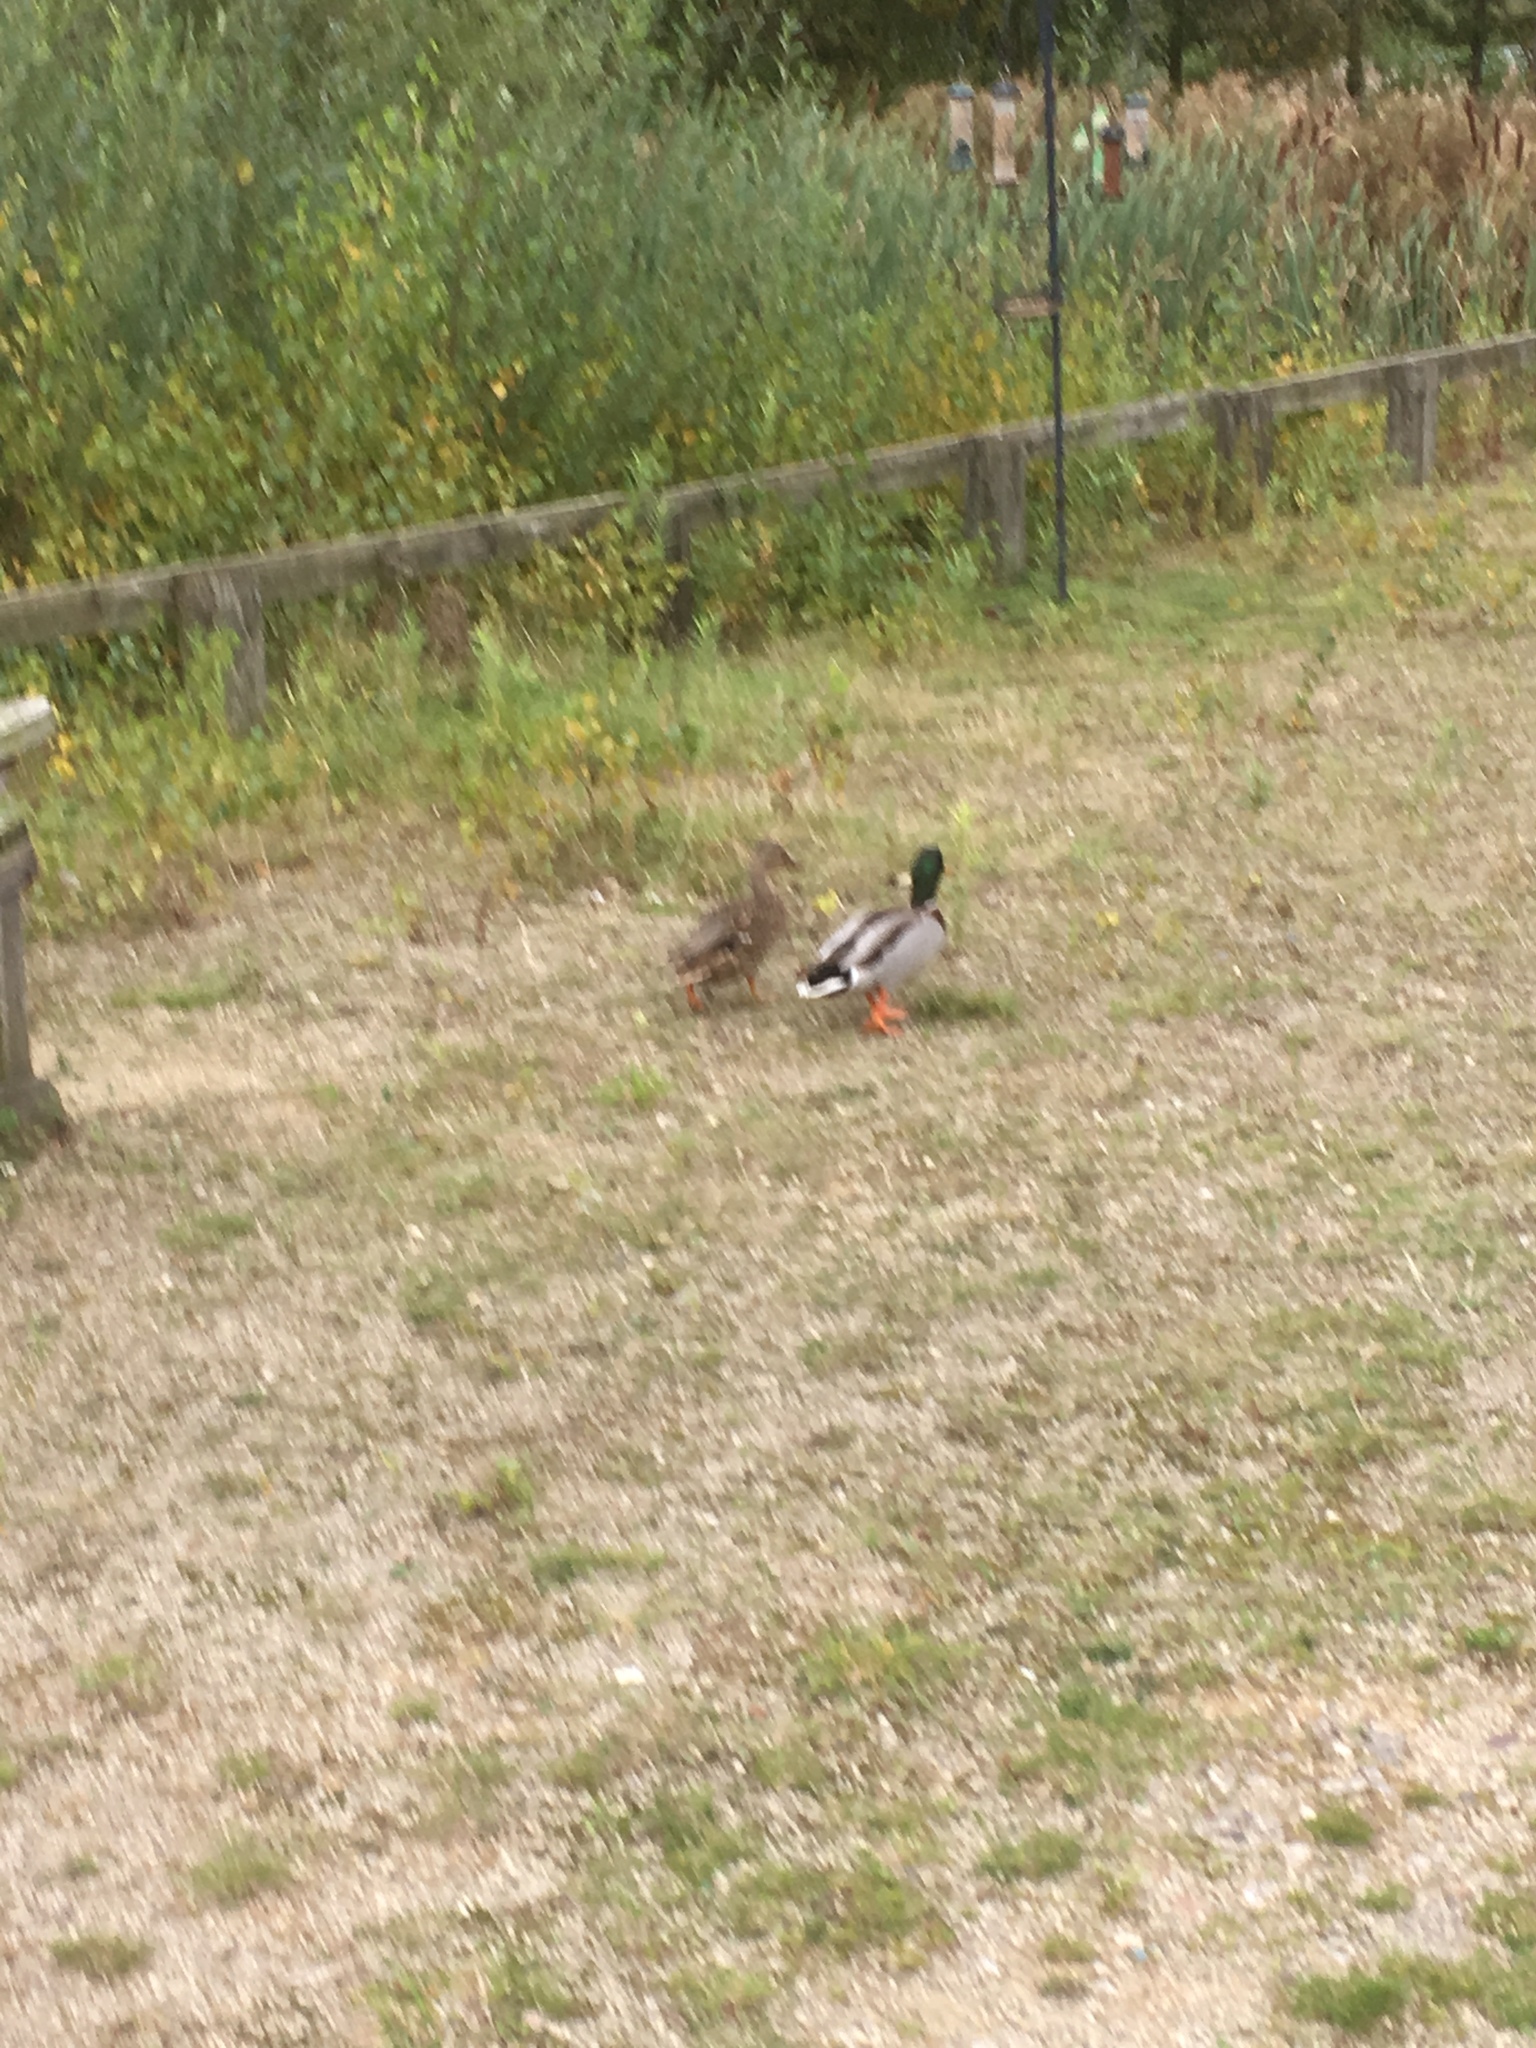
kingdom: Animalia
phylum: Chordata
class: Aves
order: Anseriformes
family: Anatidae
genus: Anas
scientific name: Anas platyrhynchos
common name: Mallard
